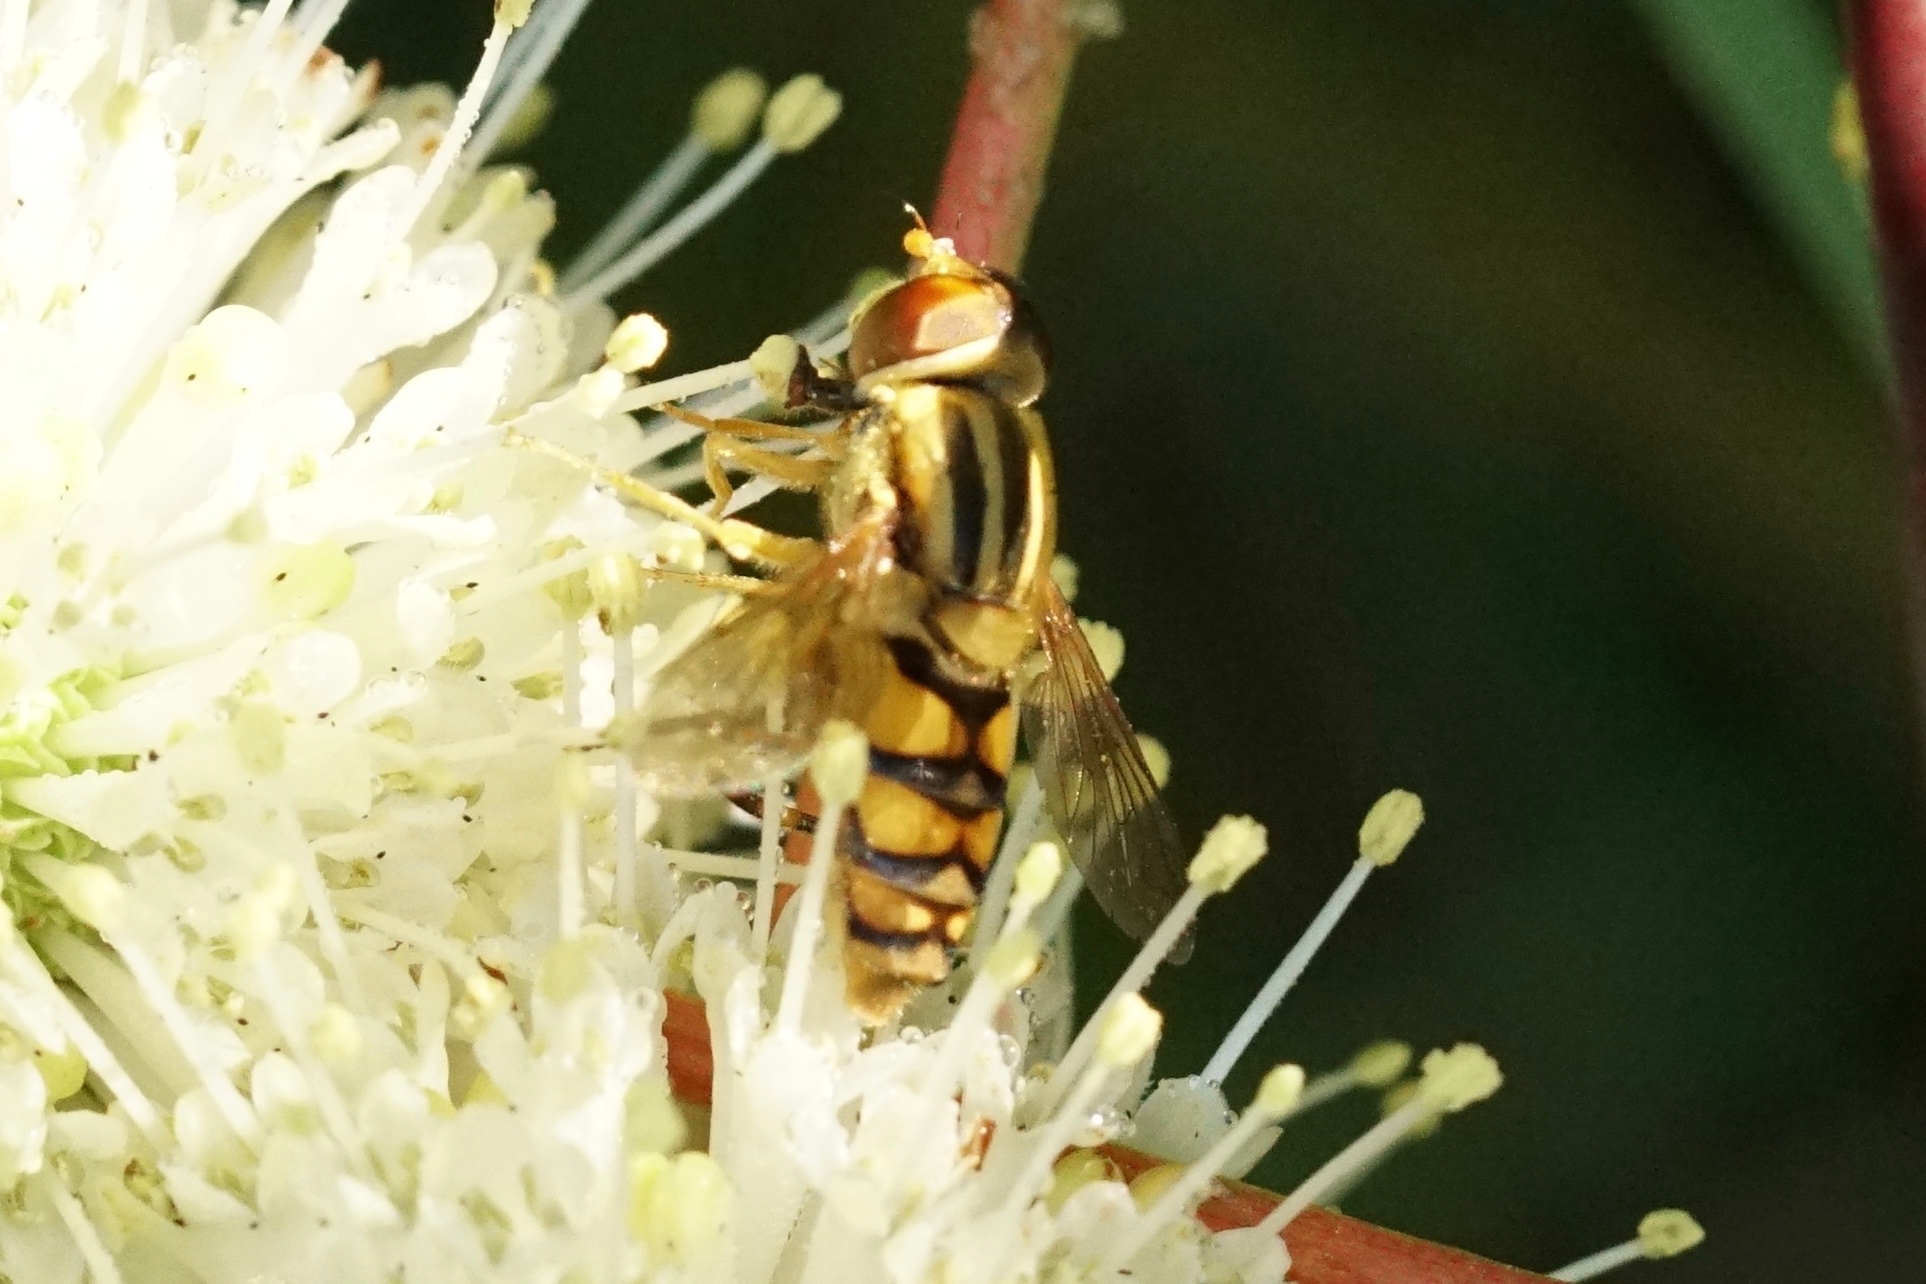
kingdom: Animalia
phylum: Arthropoda
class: Insecta
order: Diptera
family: Syrphidae
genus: Parhelophilus
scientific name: Parhelophilus integer
